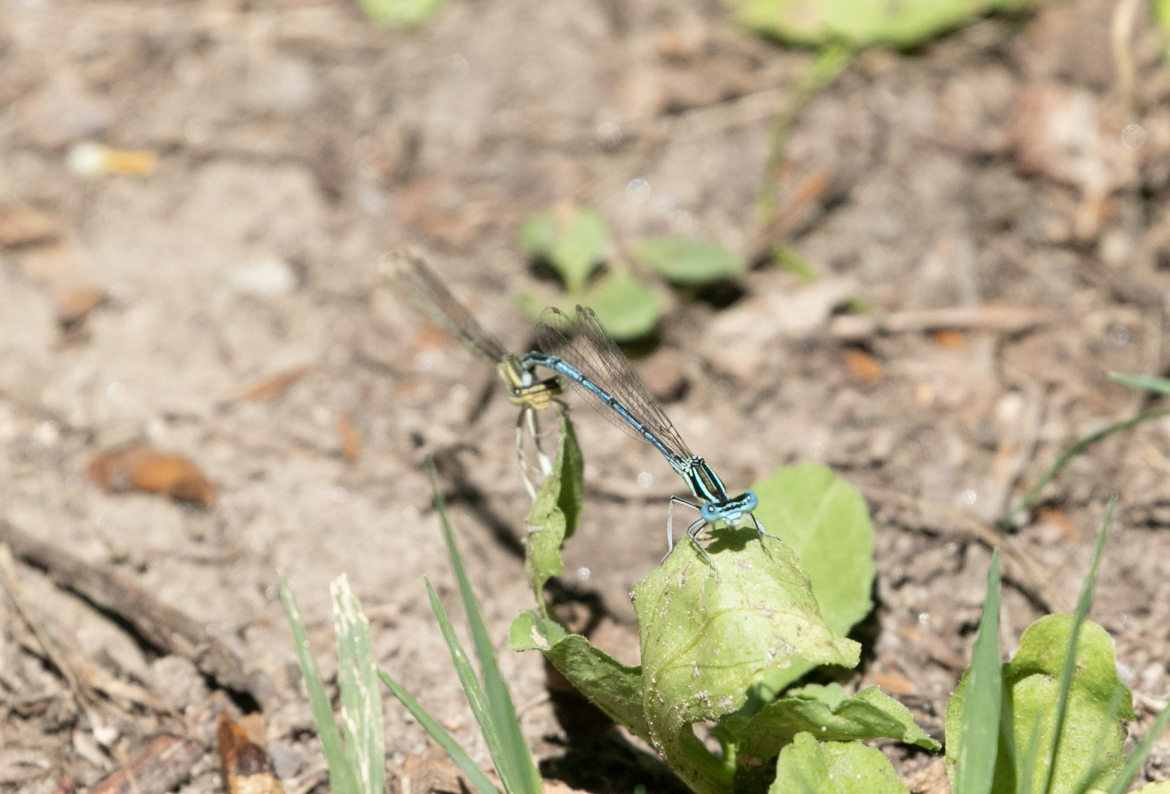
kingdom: Animalia
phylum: Arthropoda
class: Insecta
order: Odonata
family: Platycnemididae
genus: Platycnemis
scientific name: Platycnemis pennipes
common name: White-legged damselfly
